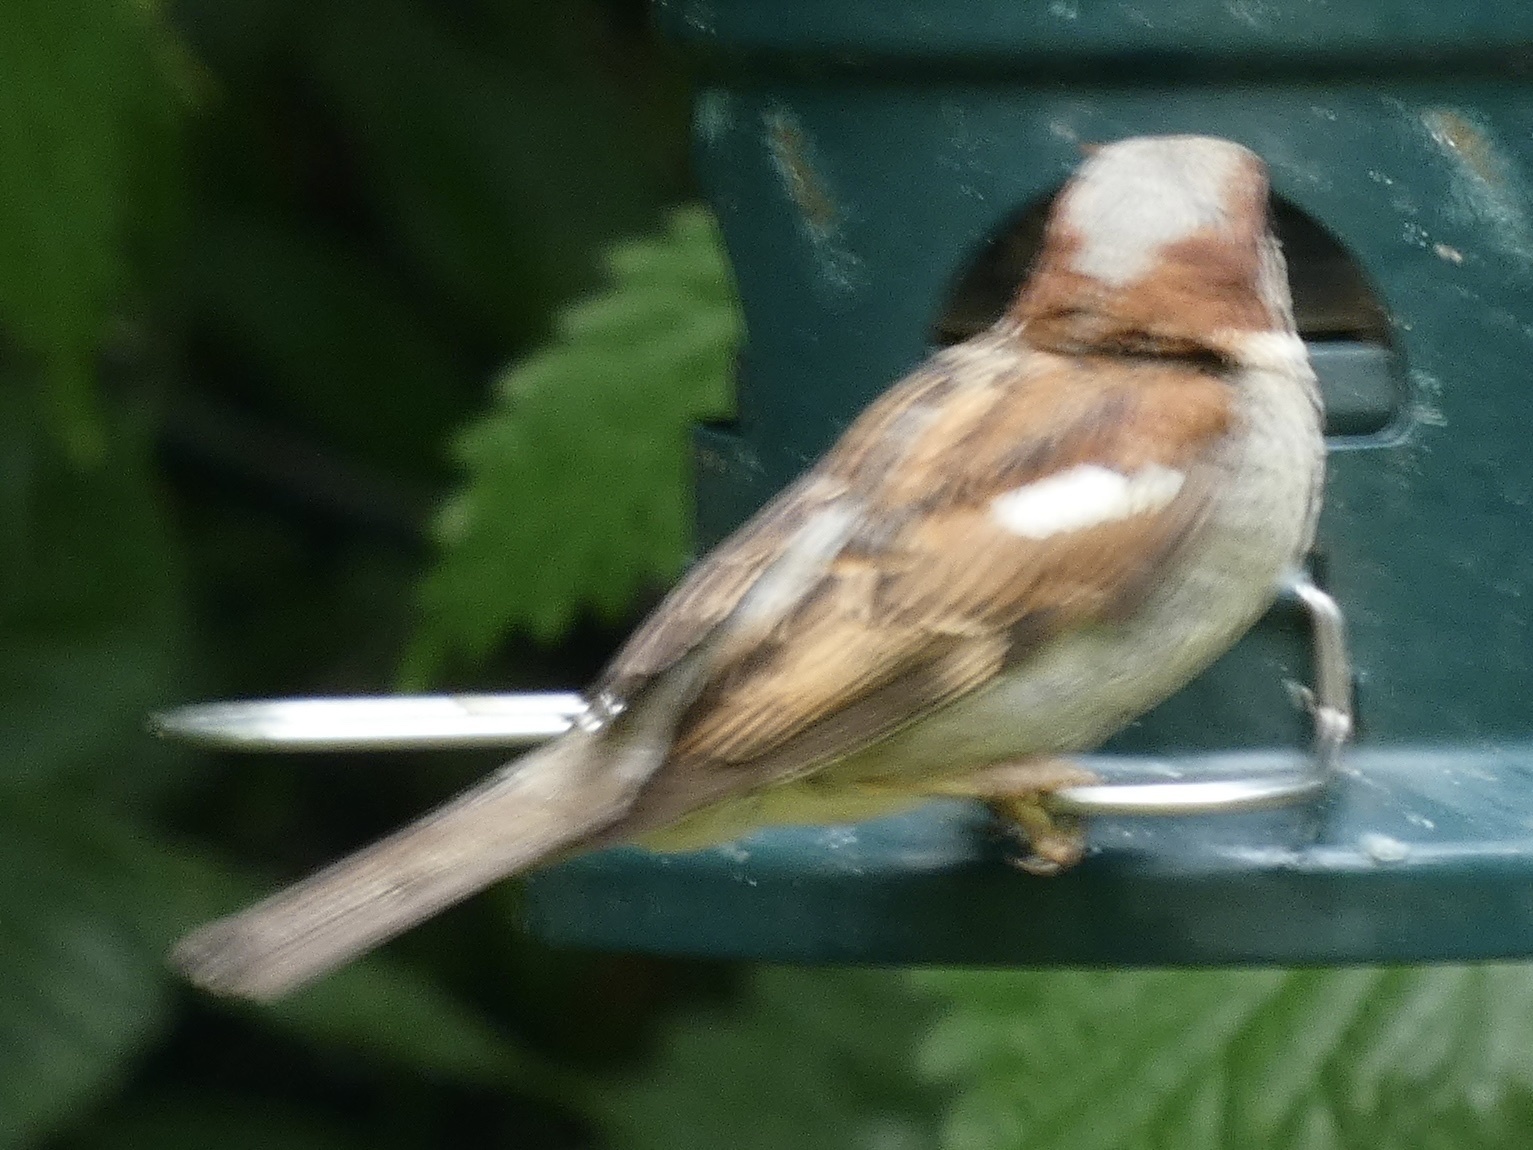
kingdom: Animalia
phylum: Chordata
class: Aves
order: Passeriformes
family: Passeridae
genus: Passer
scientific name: Passer domesticus
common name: House sparrow
